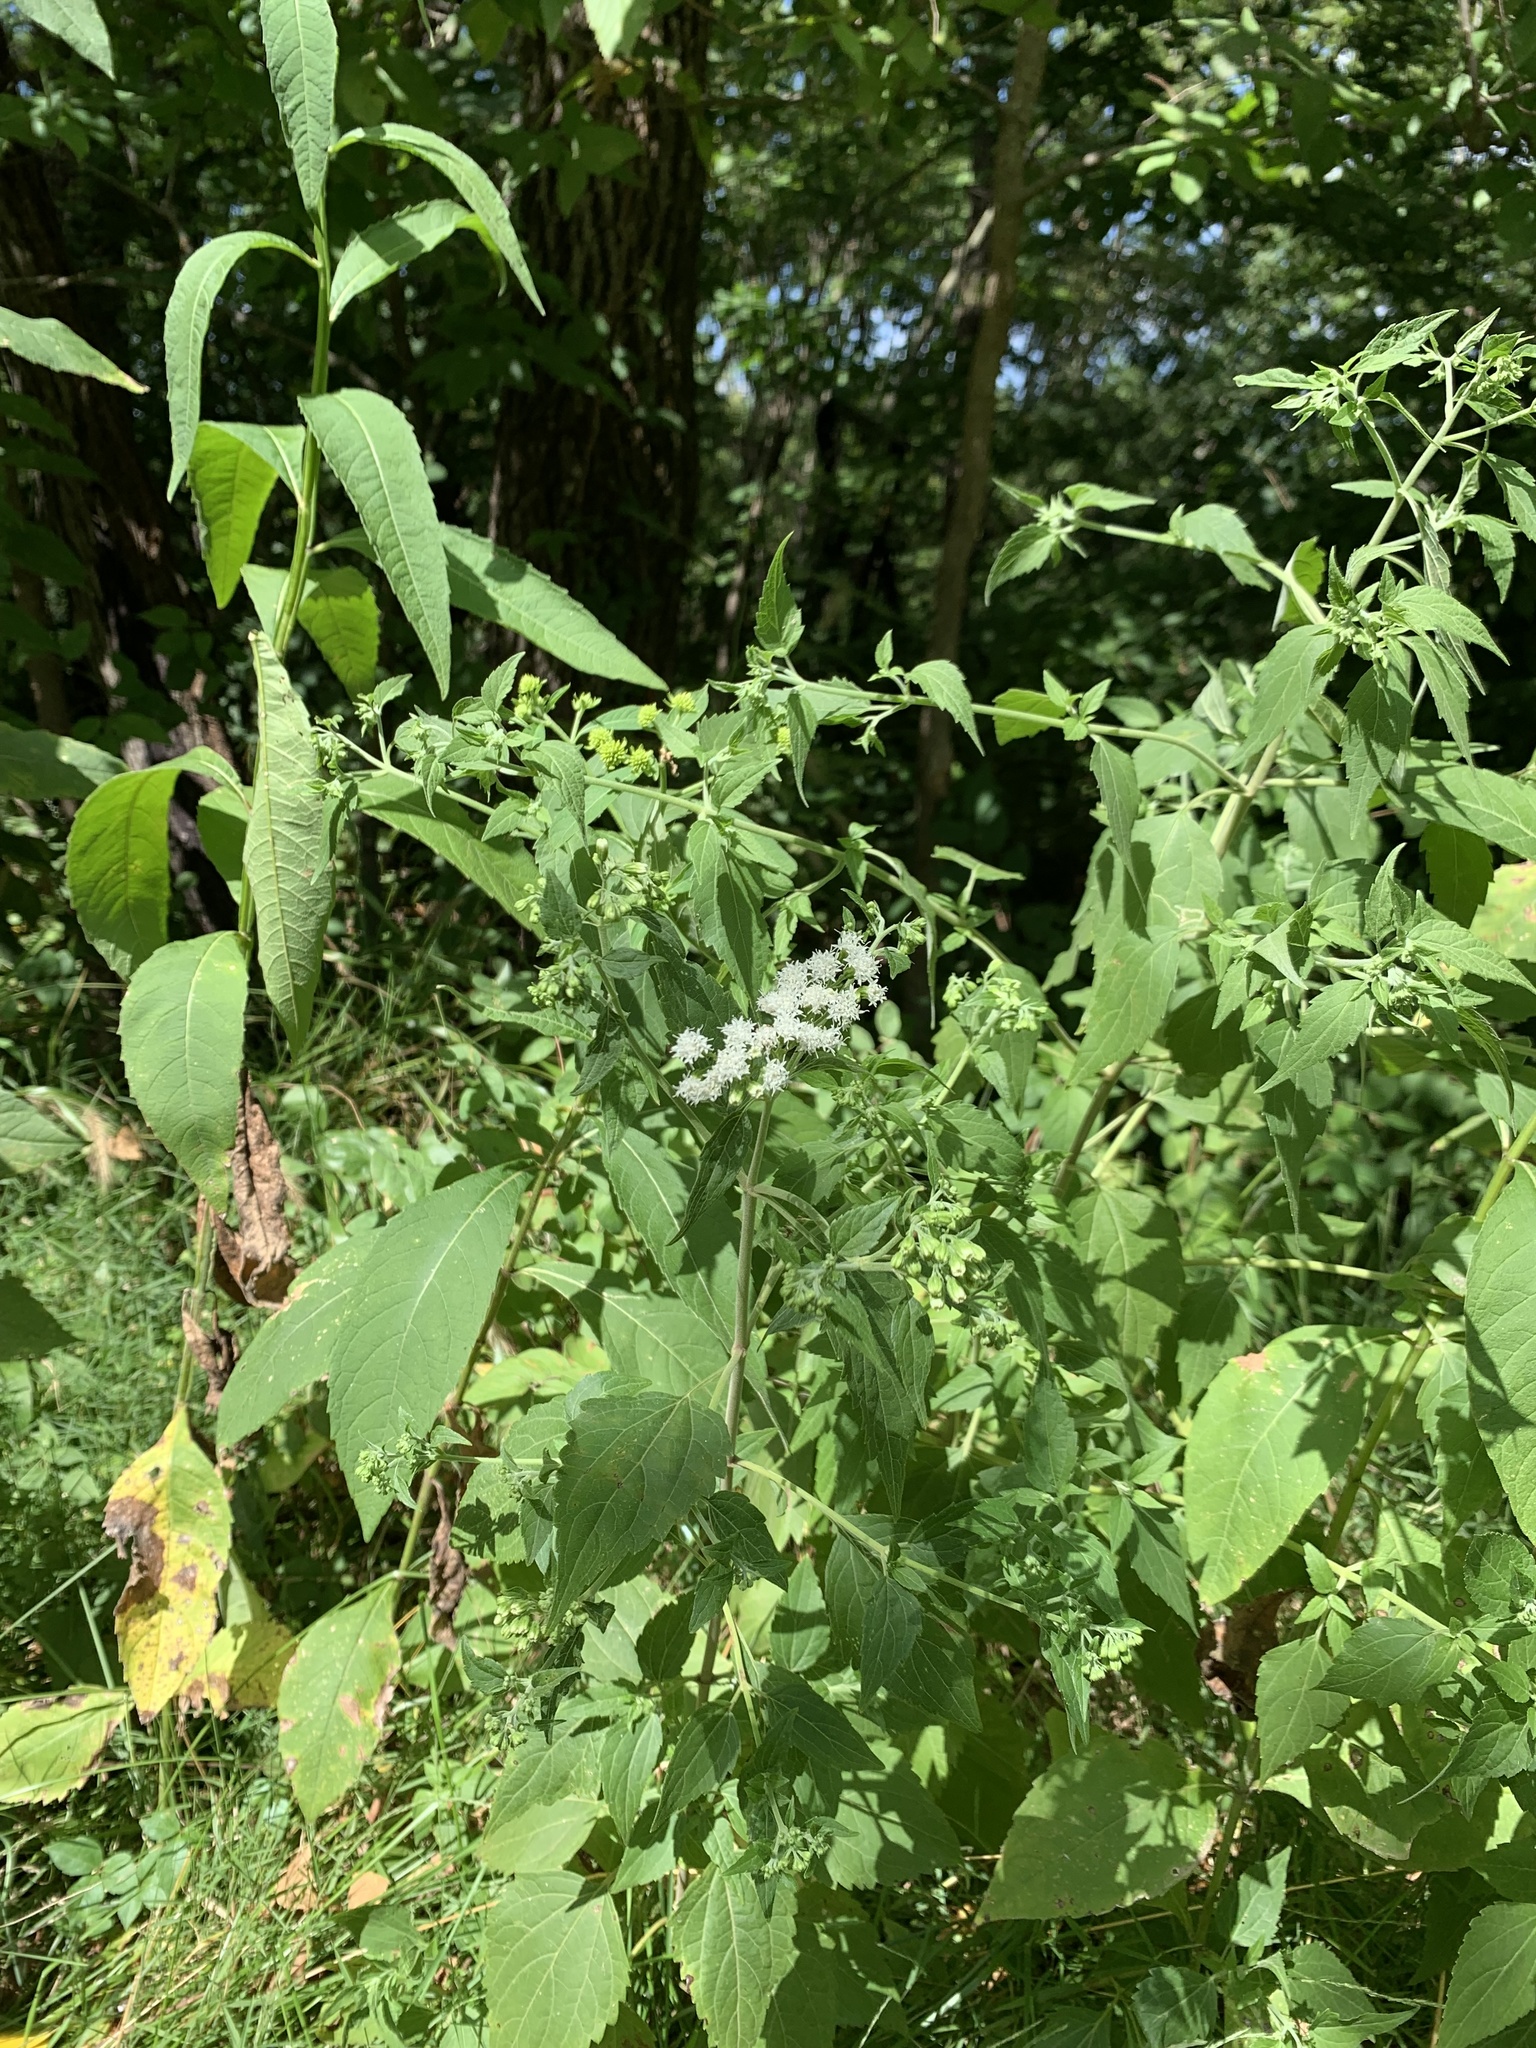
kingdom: Plantae
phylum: Tracheophyta
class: Magnoliopsida
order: Asterales
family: Asteraceae
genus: Ageratina
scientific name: Ageratina altissima
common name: White snakeroot
